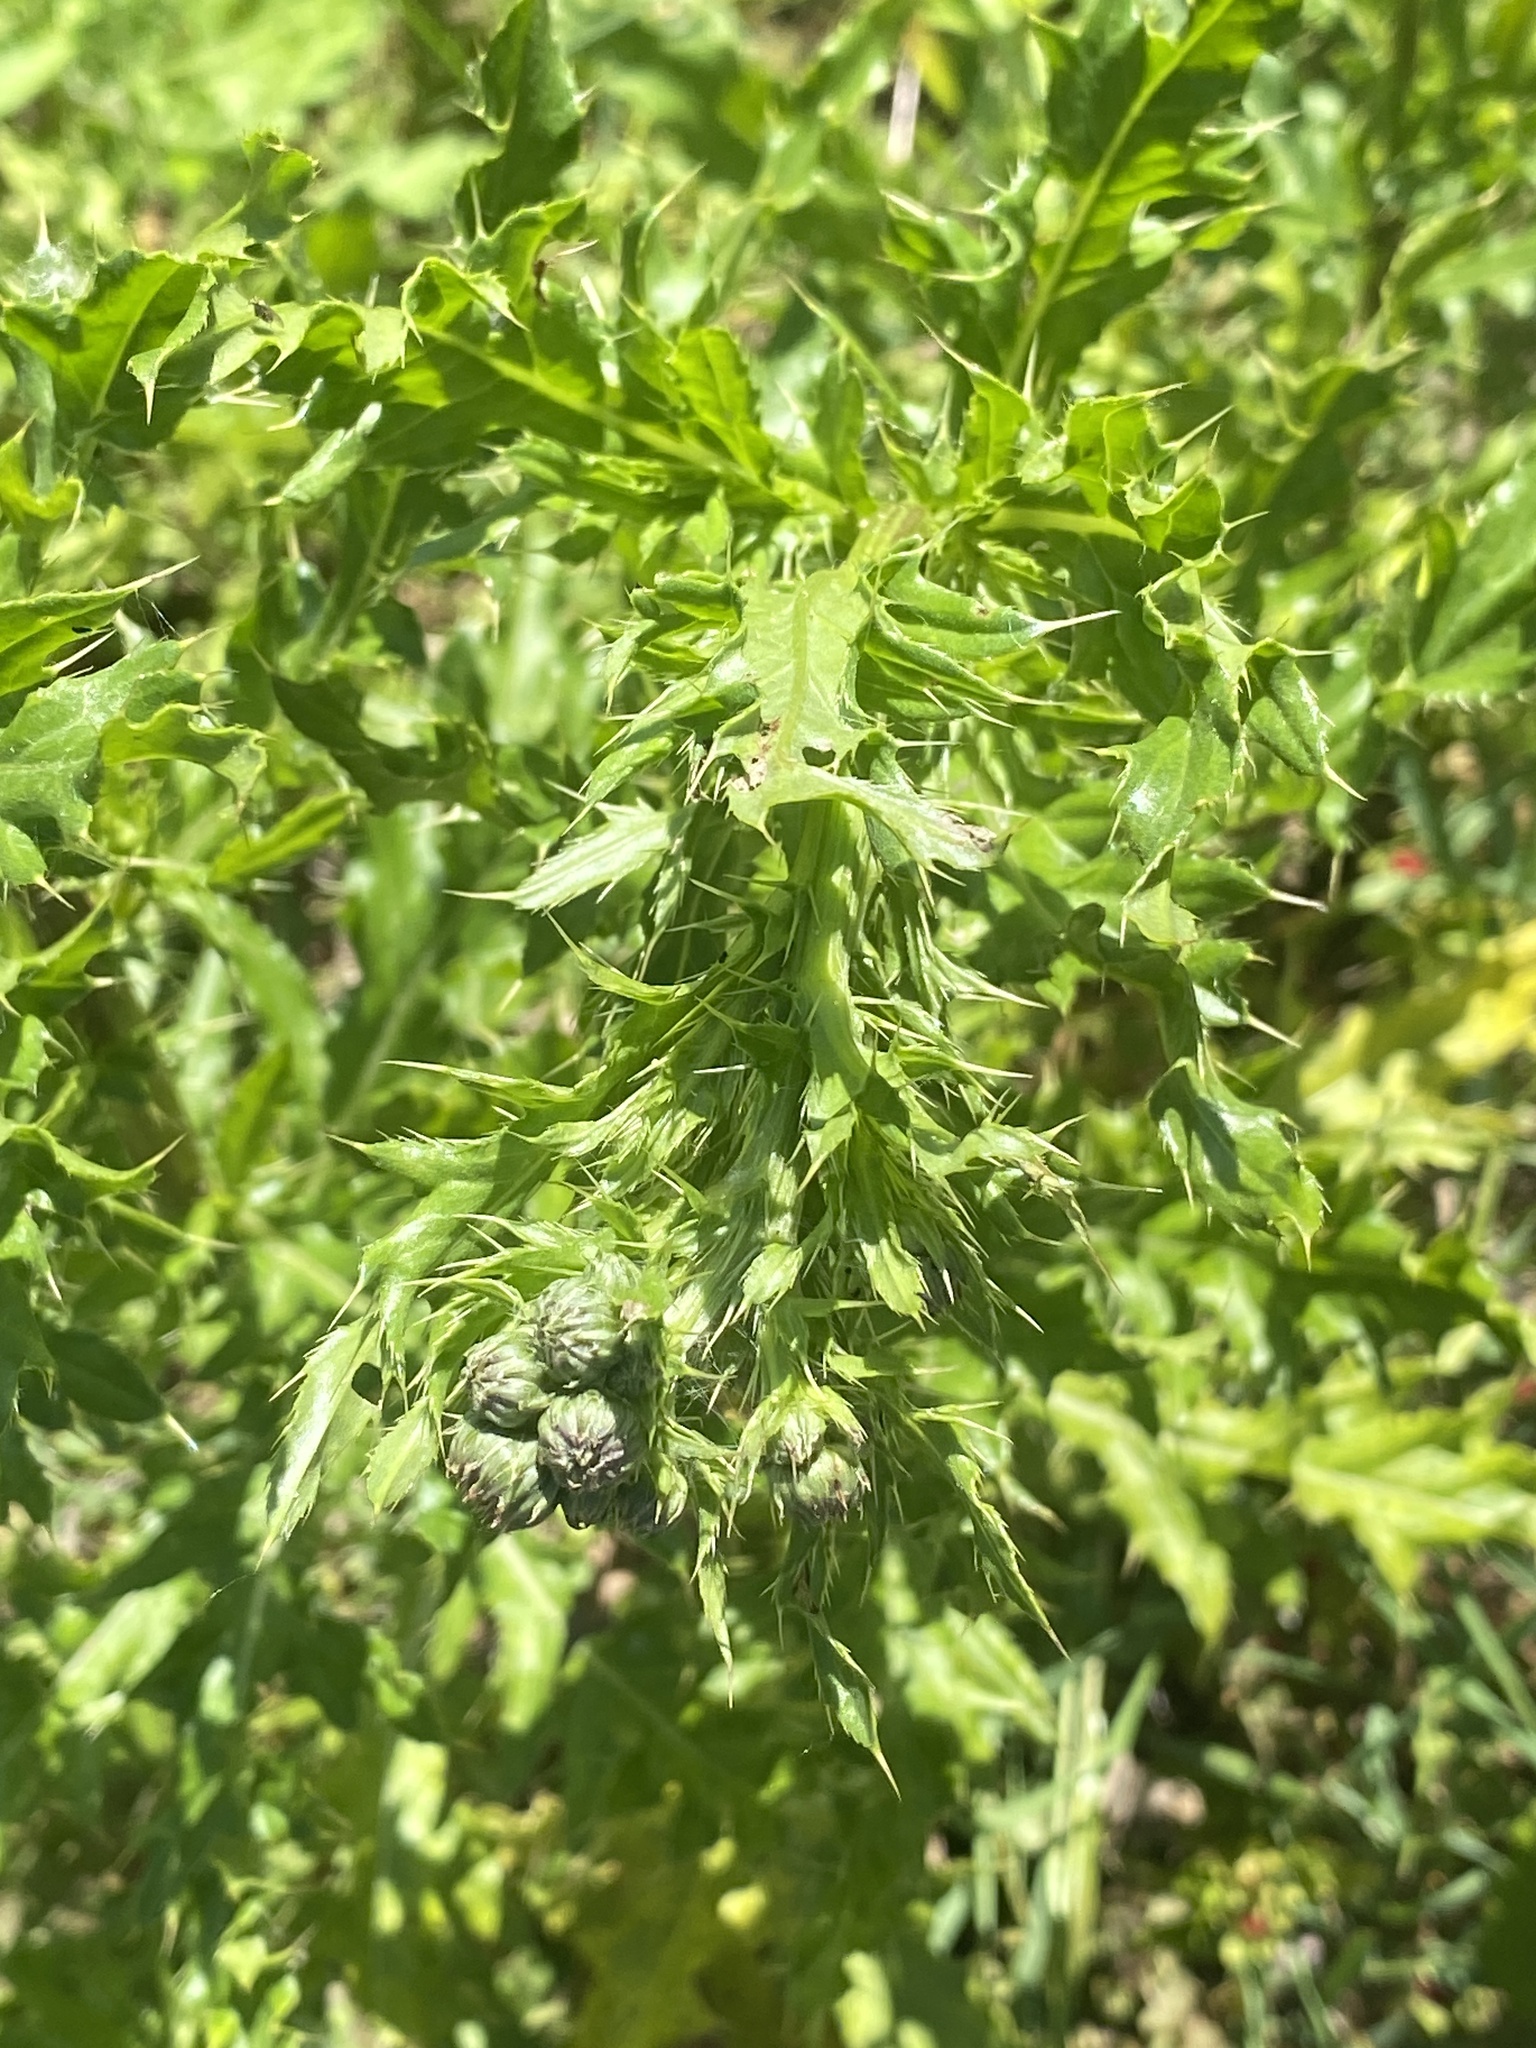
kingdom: Plantae
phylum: Tracheophyta
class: Magnoliopsida
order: Asterales
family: Asteraceae
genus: Cirsium
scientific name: Cirsium arvense
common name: Creeping thistle
